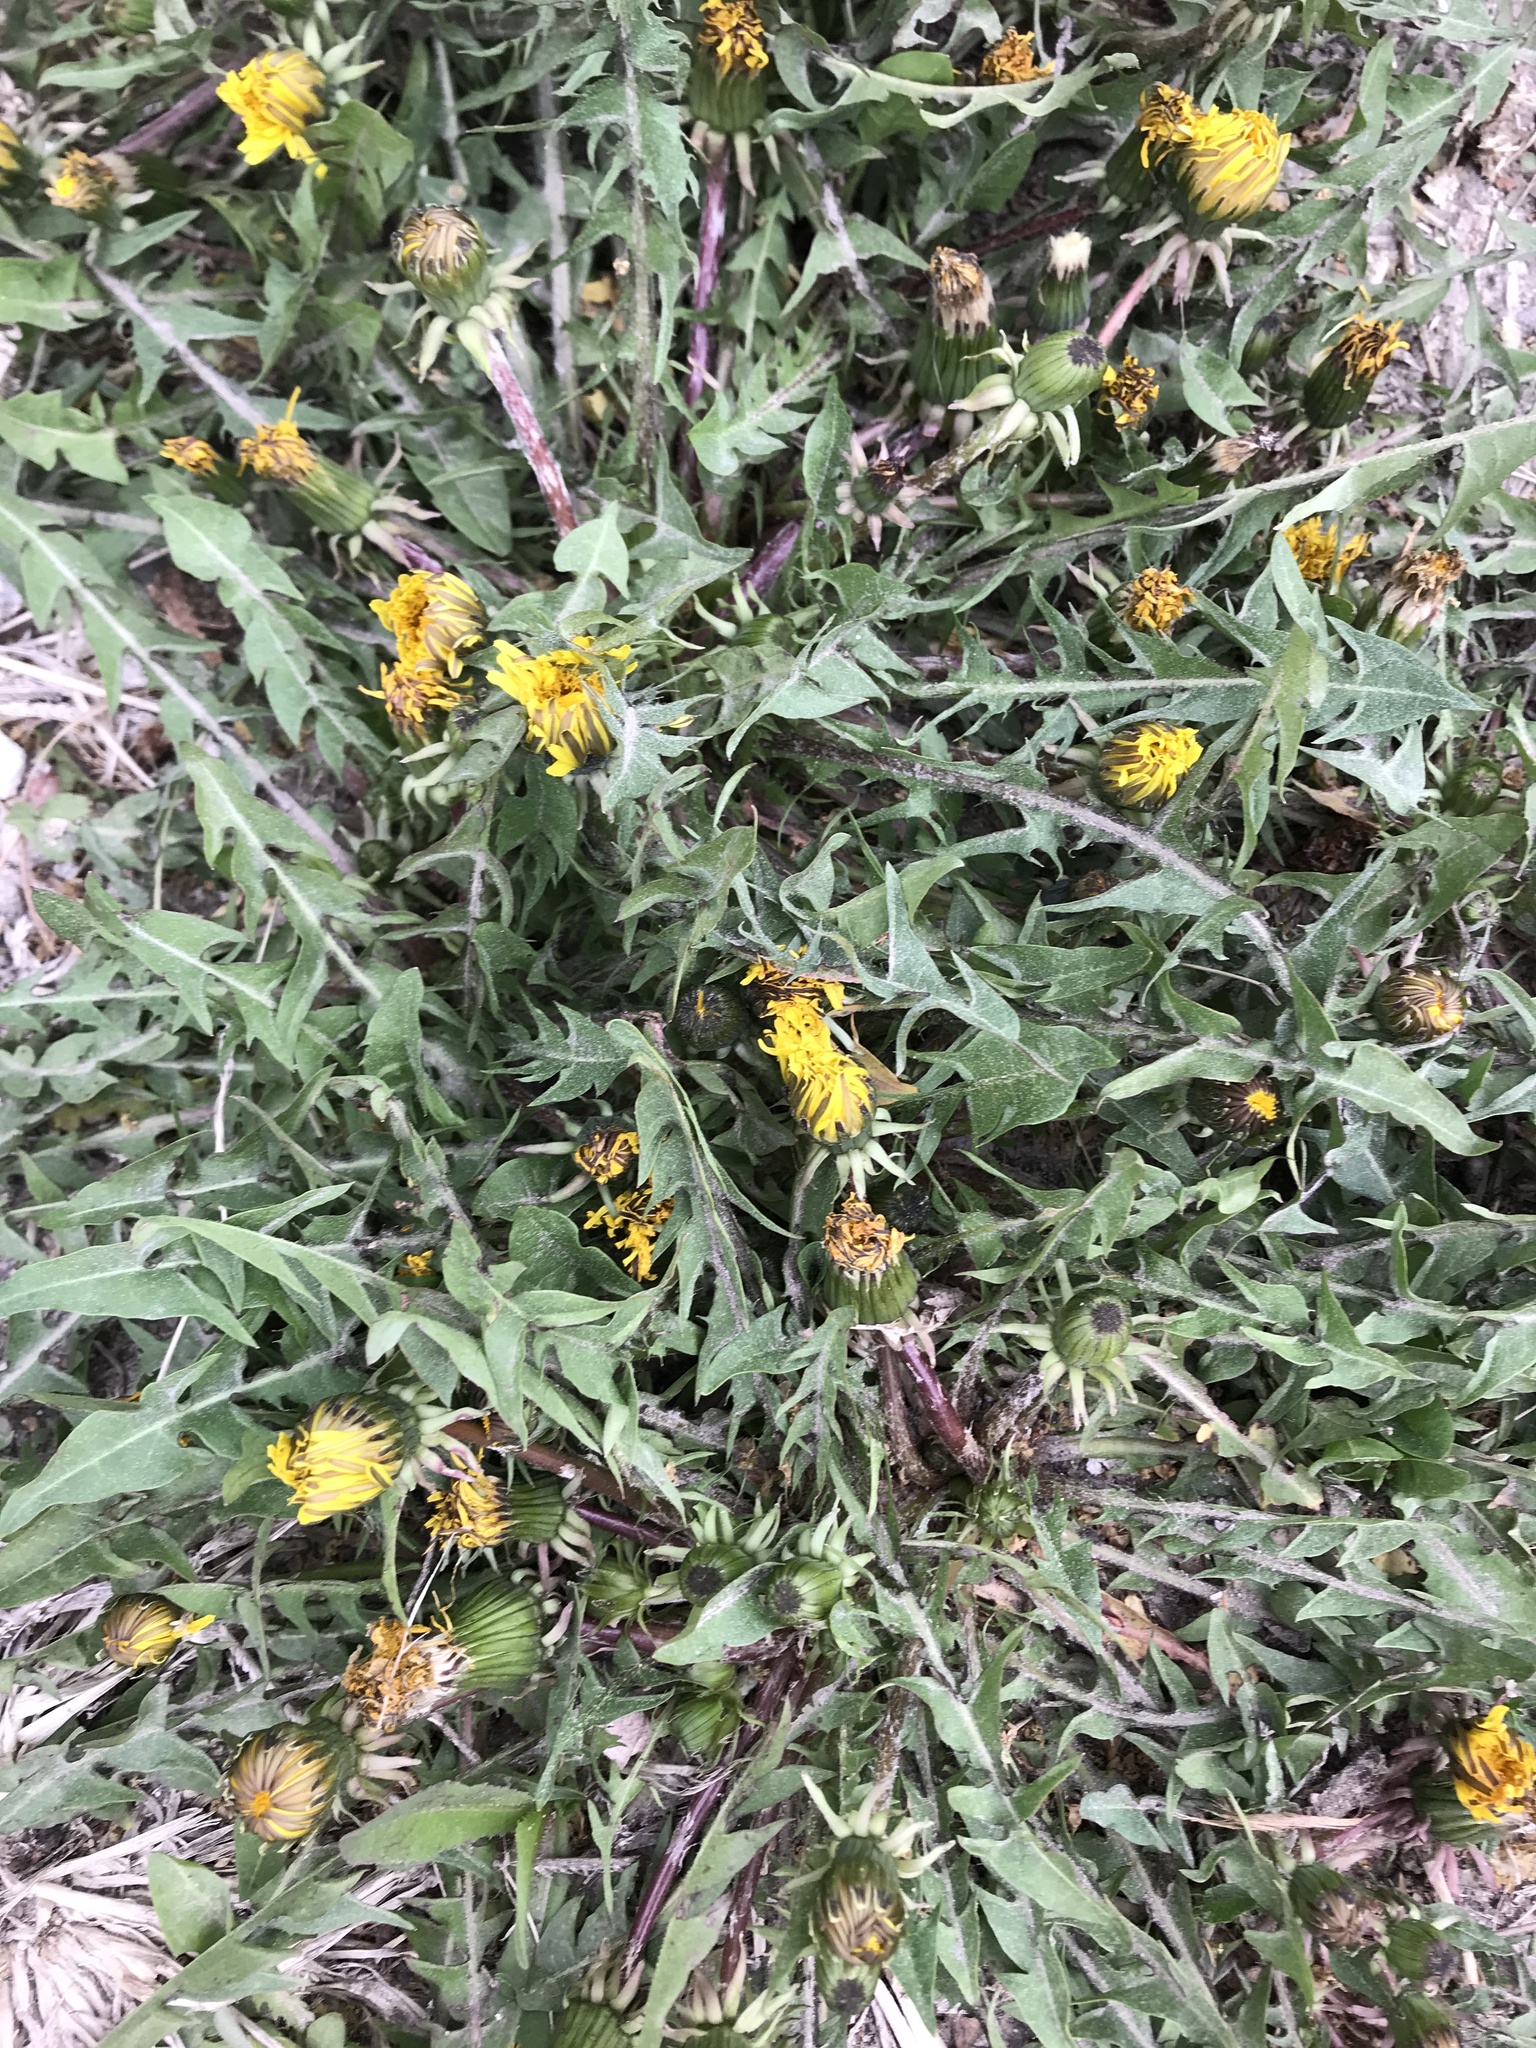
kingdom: Plantae
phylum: Tracheophyta
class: Magnoliopsida
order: Asterales
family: Asteraceae
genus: Taraxacum
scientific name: Taraxacum
